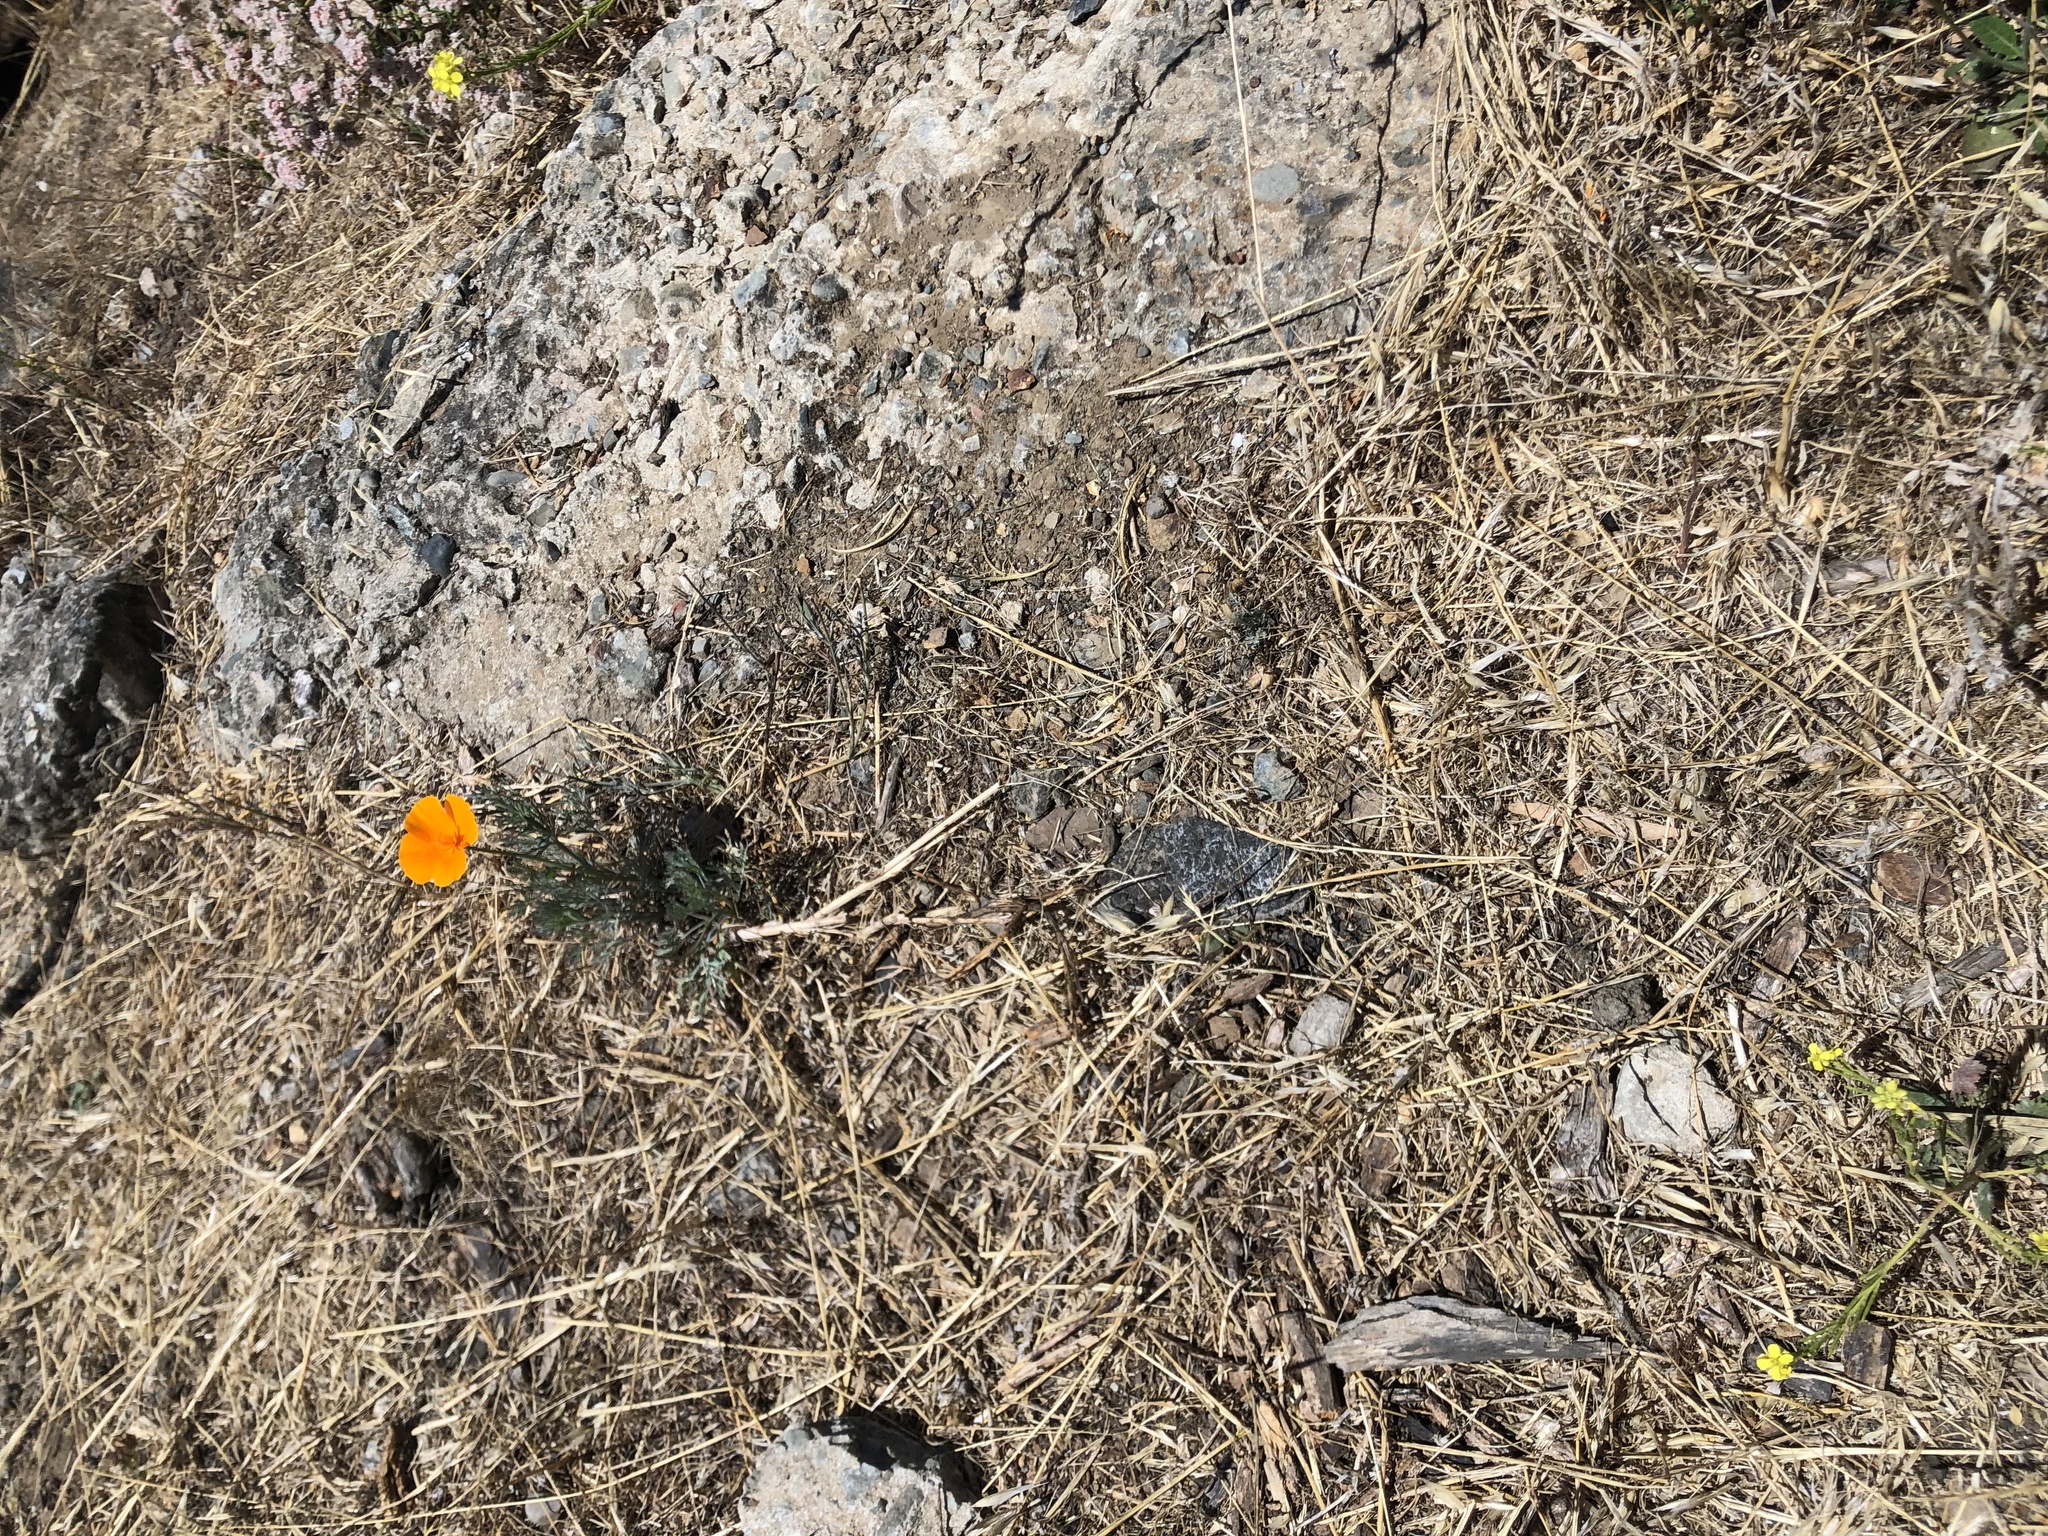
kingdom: Plantae
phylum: Tracheophyta
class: Magnoliopsida
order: Ranunculales
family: Papaveraceae
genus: Eschscholzia
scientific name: Eschscholzia californica
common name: California poppy
